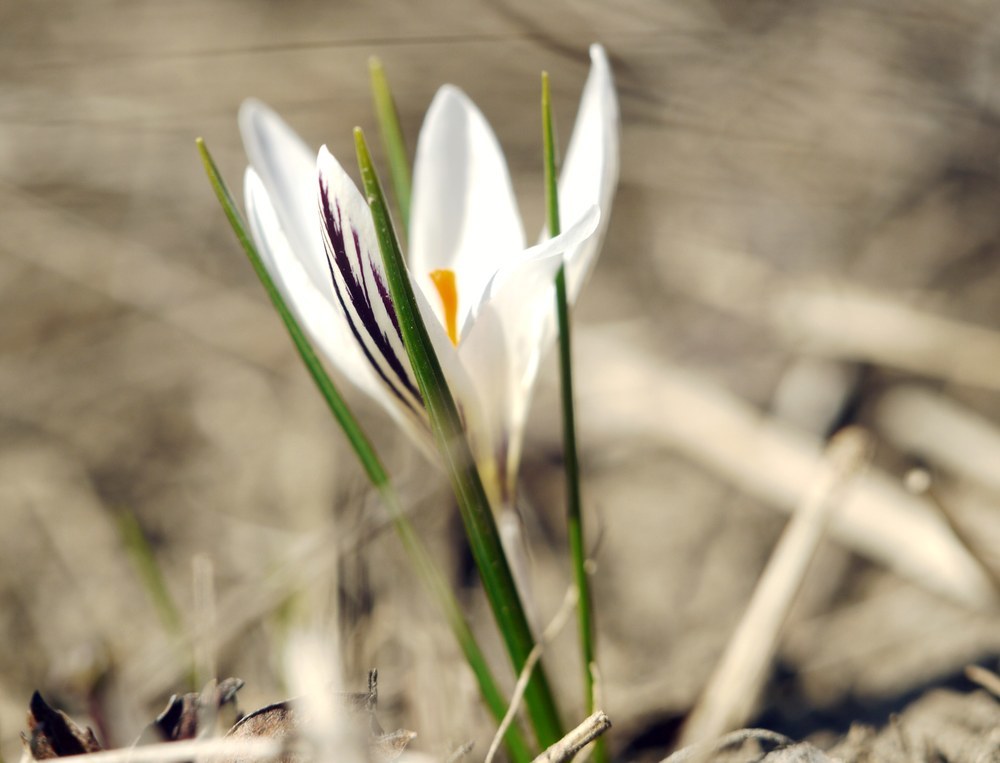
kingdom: Plantae
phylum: Tracheophyta
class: Liliopsida
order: Asparagales
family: Iridaceae
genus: Crocus
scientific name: Crocus reticulatus
